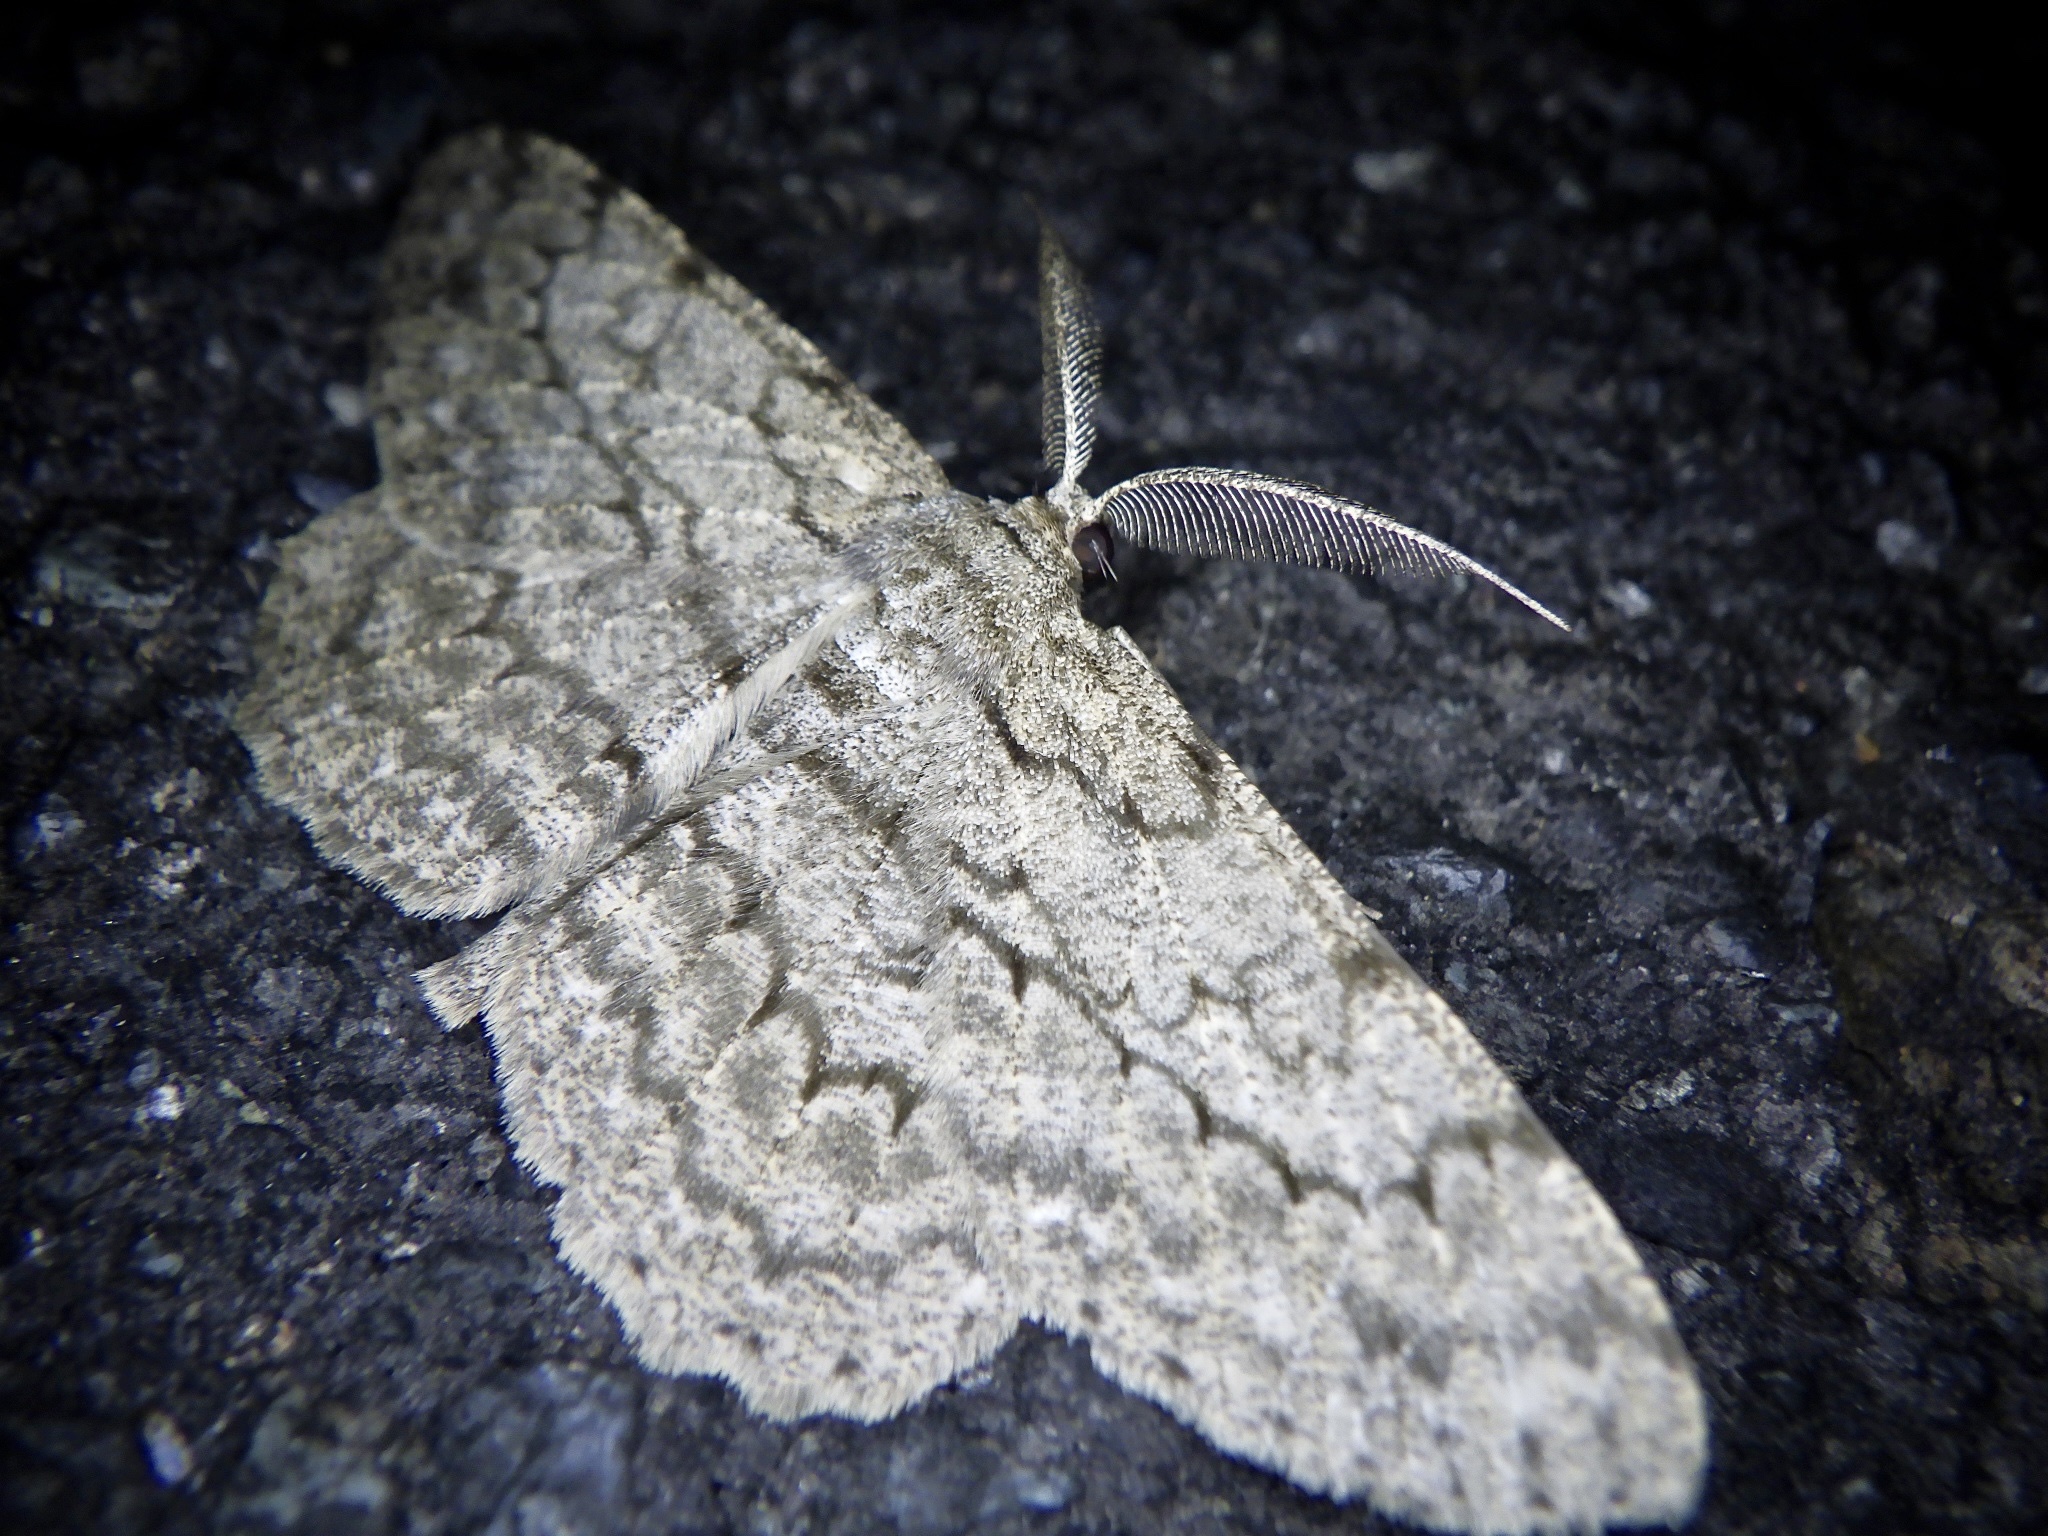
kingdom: Animalia
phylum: Arthropoda
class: Insecta
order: Lepidoptera
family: Geometridae
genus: Hypomecis
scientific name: Hypomecis punctinalis
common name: Pale oak beauty
